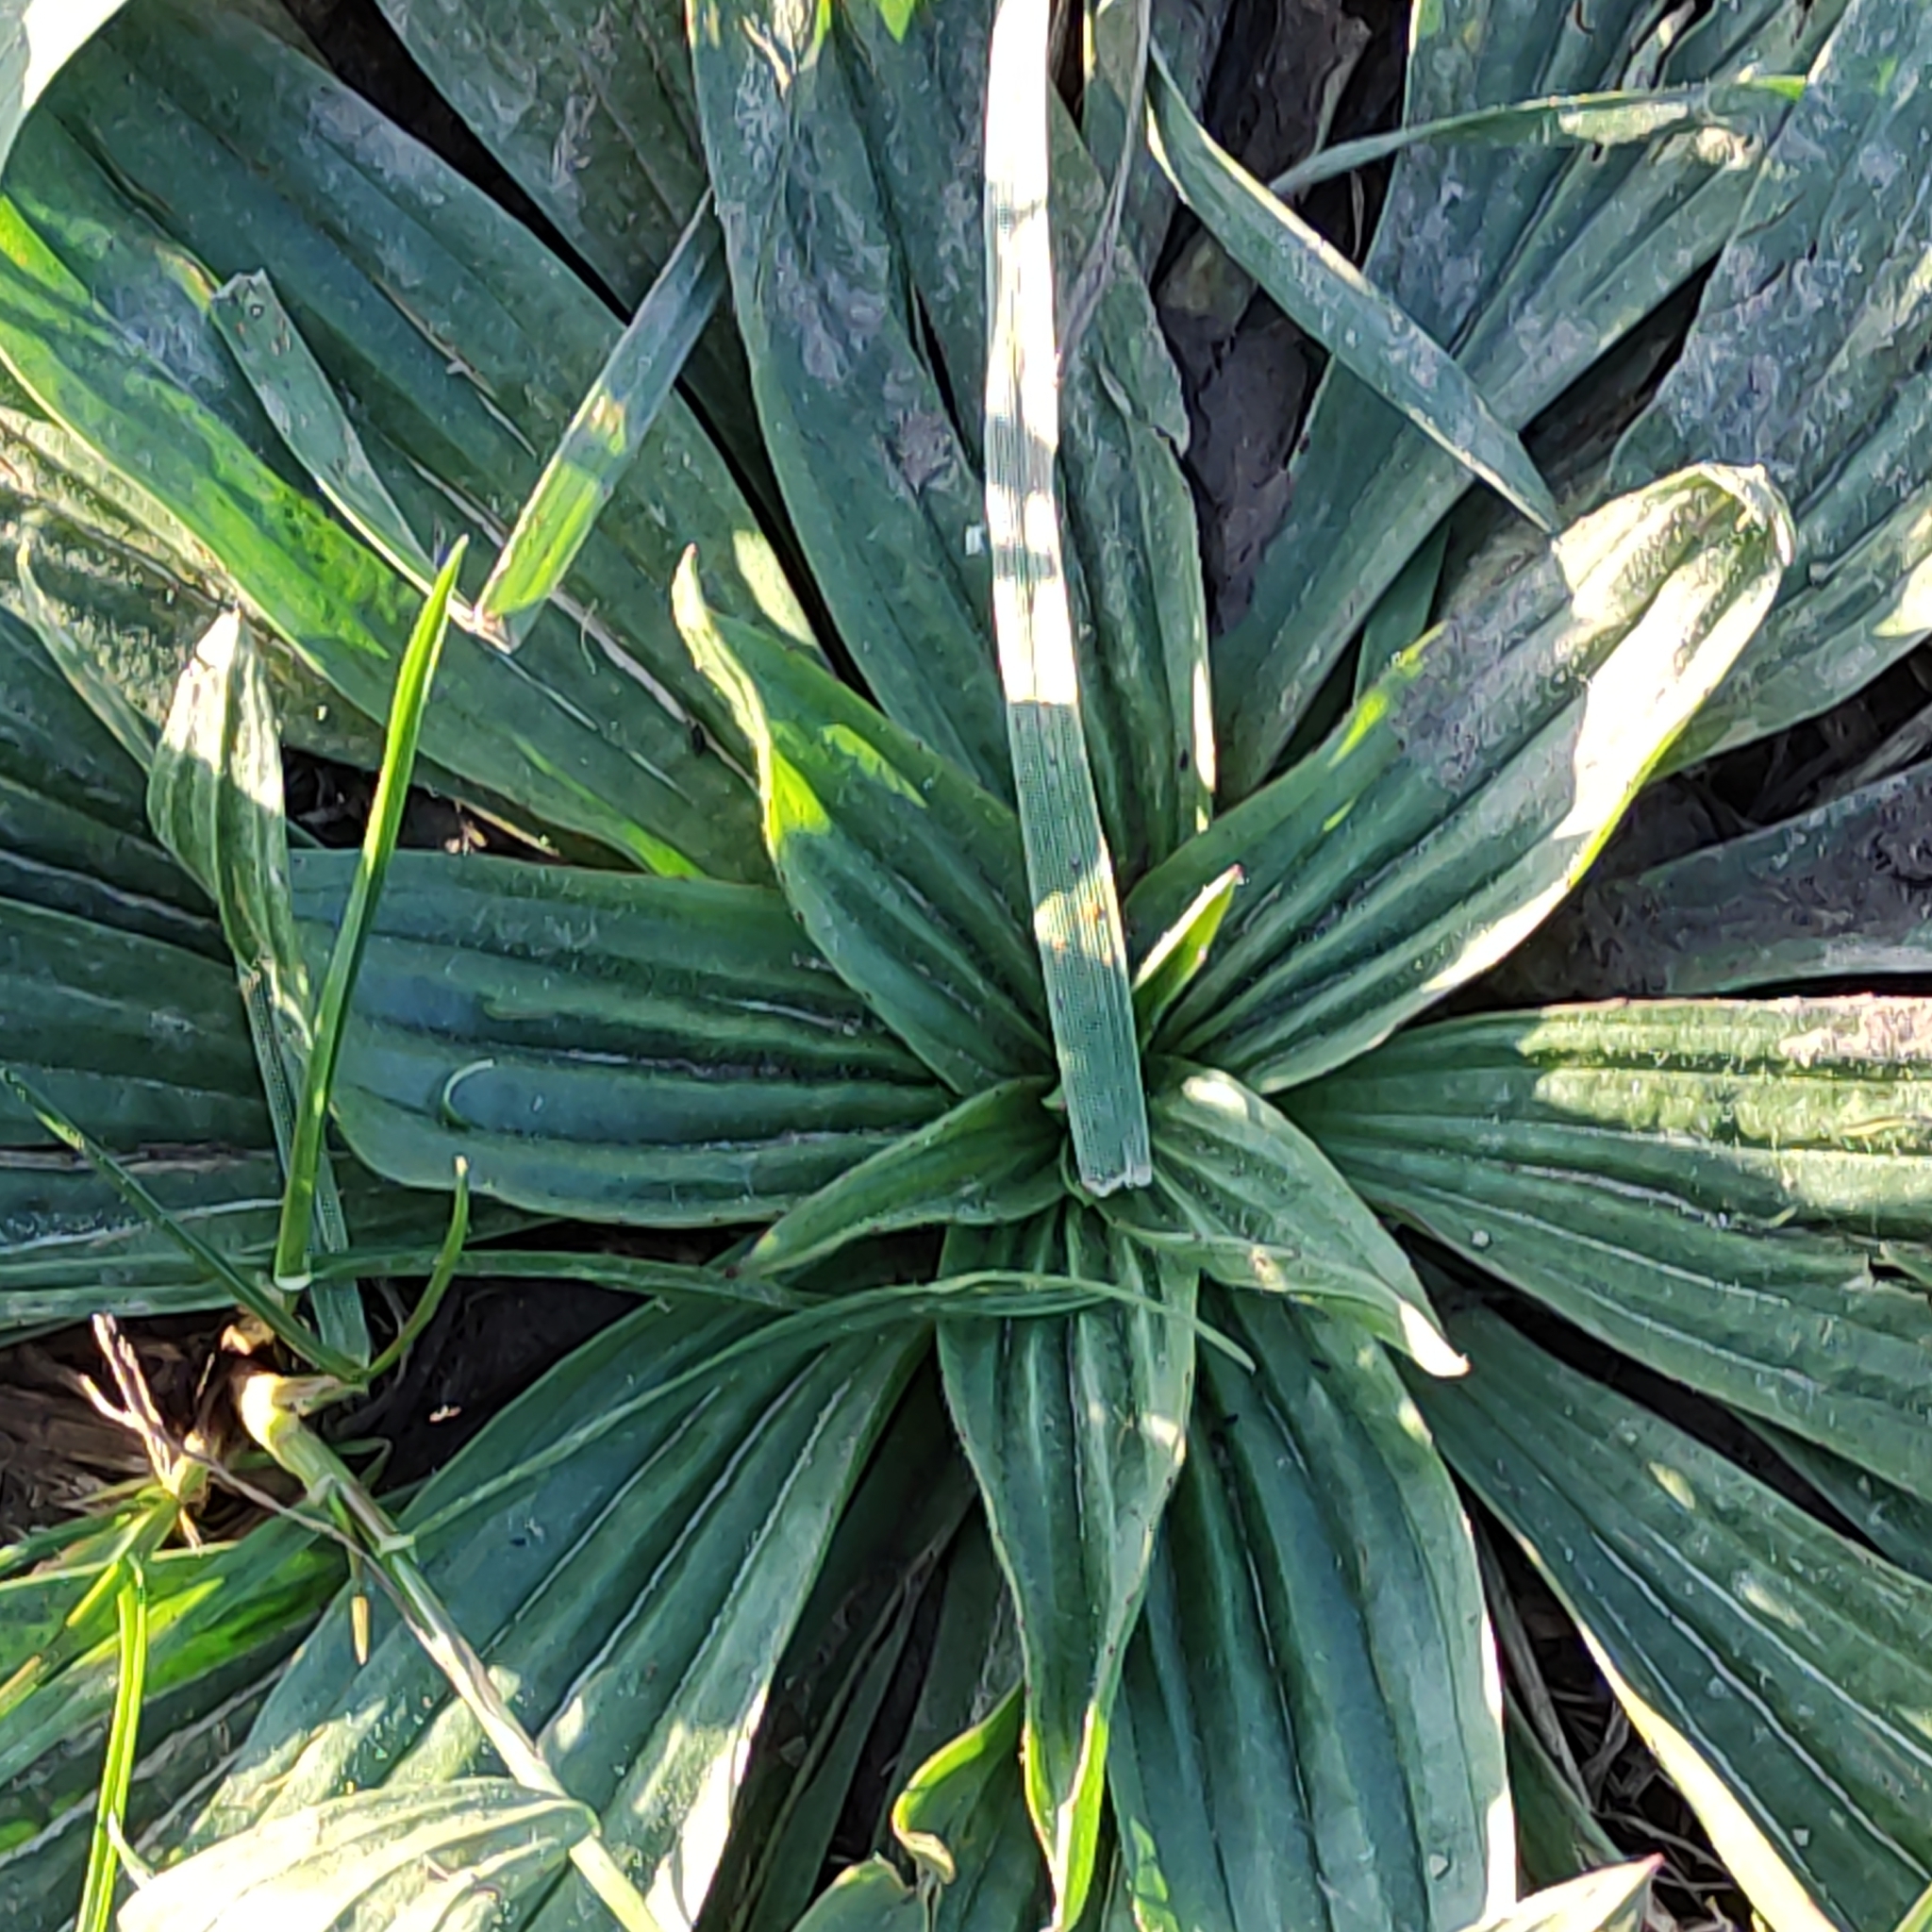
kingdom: Plantae
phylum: Tracheophyta
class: Magnoliopsida
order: Lamiales
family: Plantaginaceae
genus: Plantago
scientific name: Plantago lanceolata
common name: Ribwort plantain
